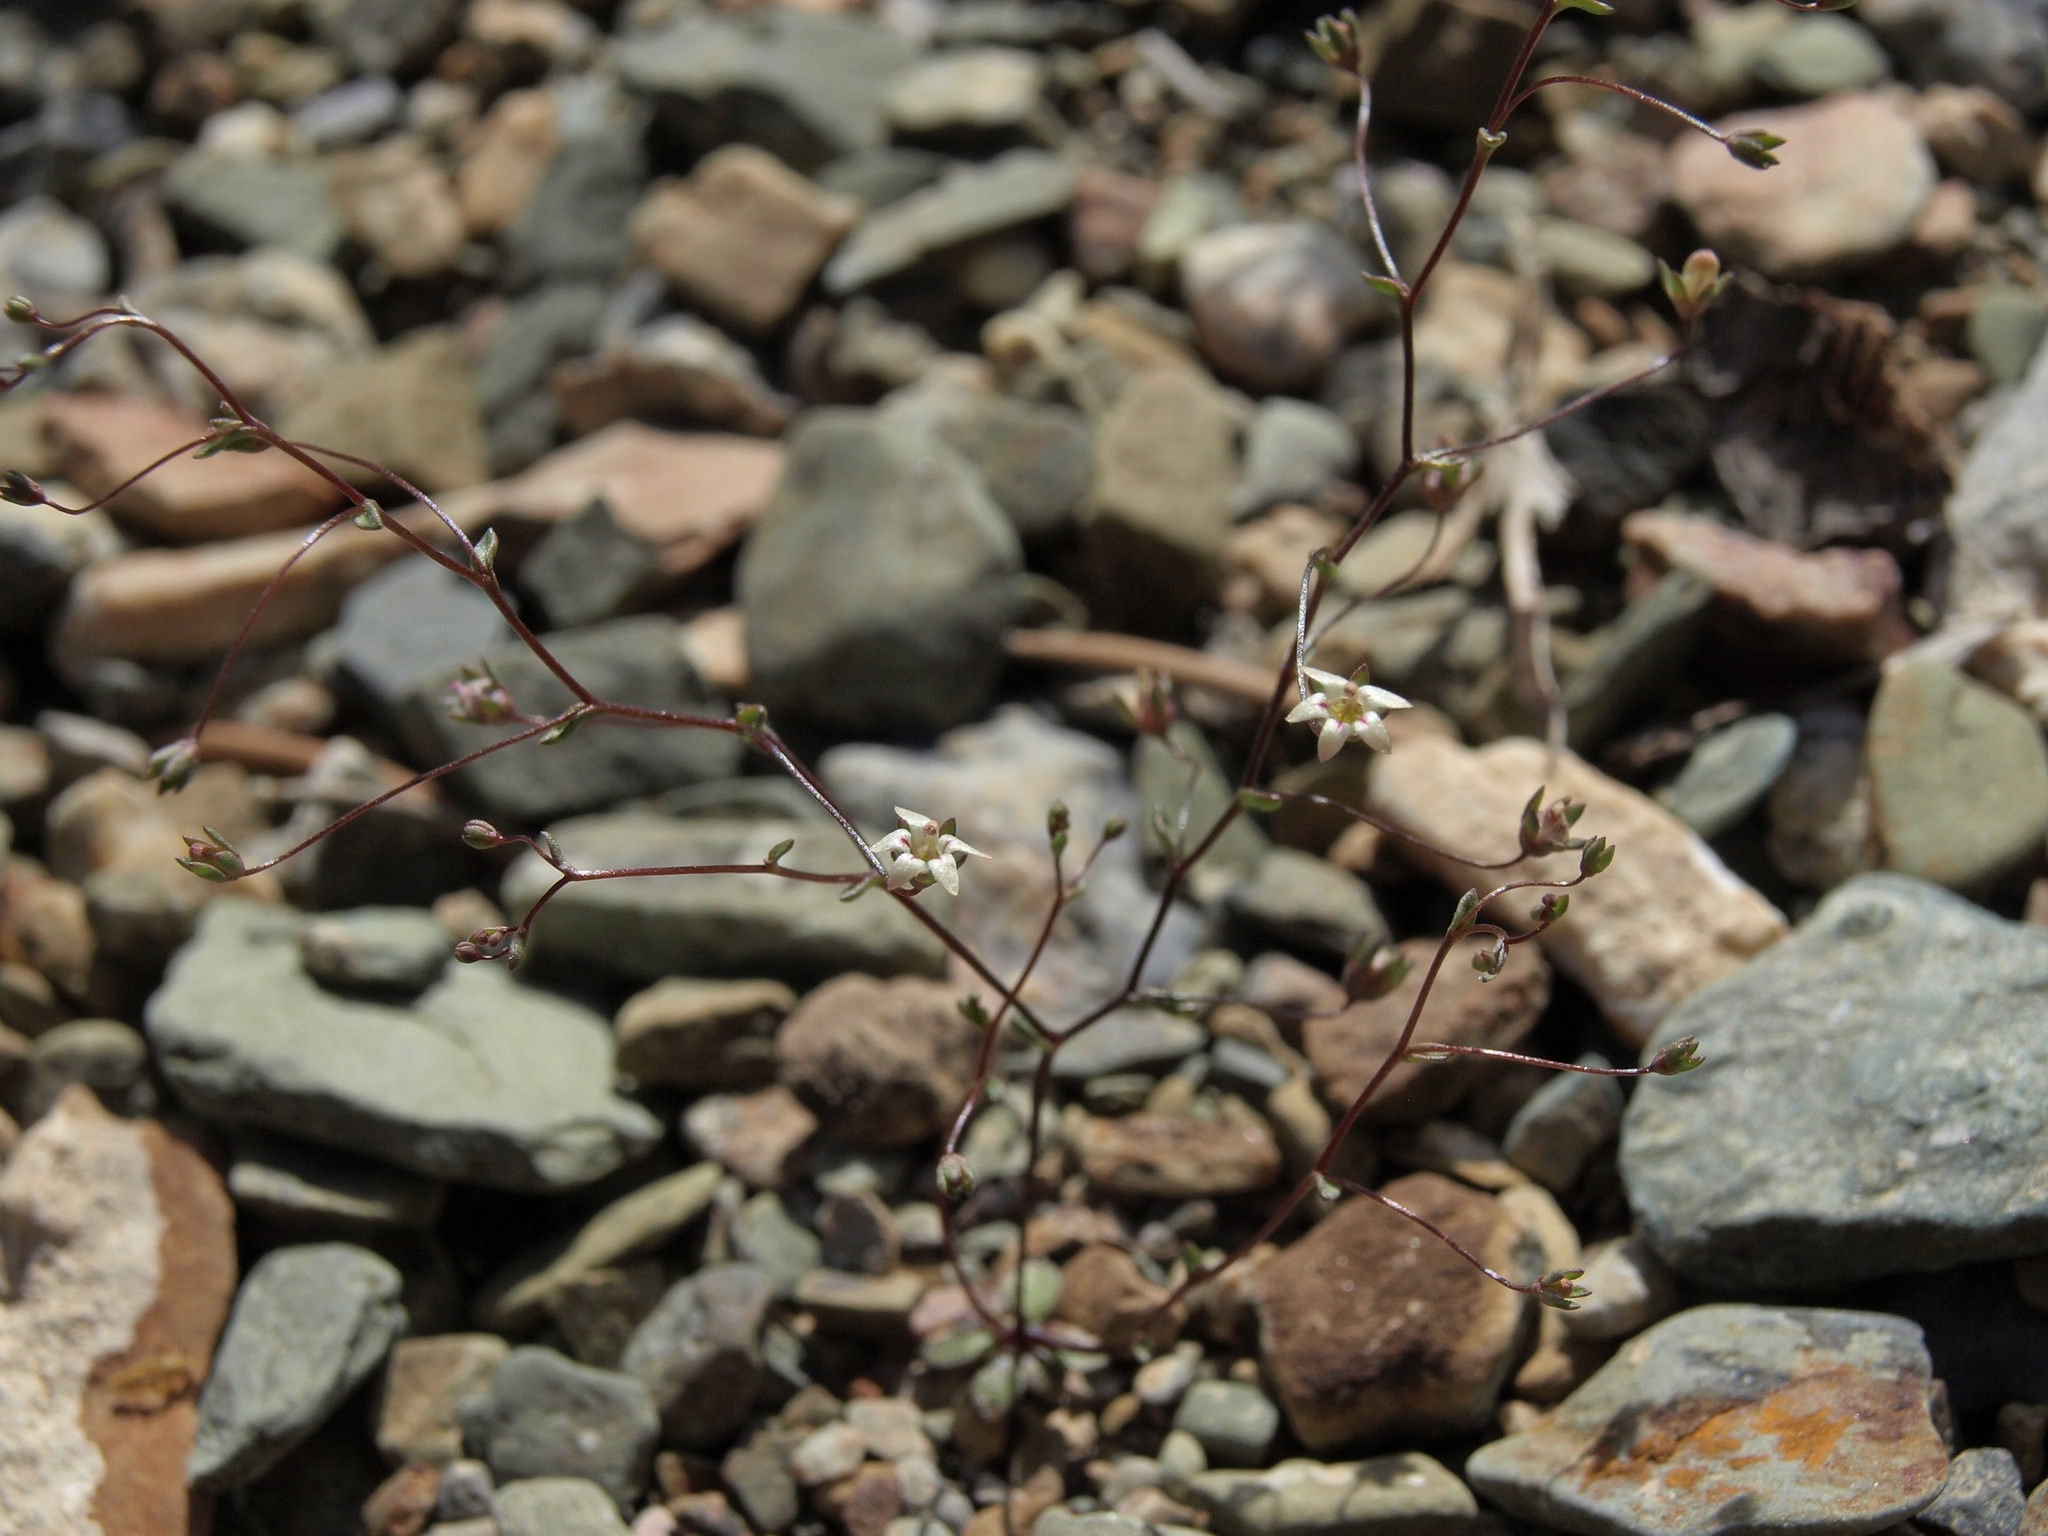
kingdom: Plantae
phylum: Tracheophyta
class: Magnoliopsida
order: Asterales
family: Campanulaceae
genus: Nemacladus
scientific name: Nemacladus inyoensis
